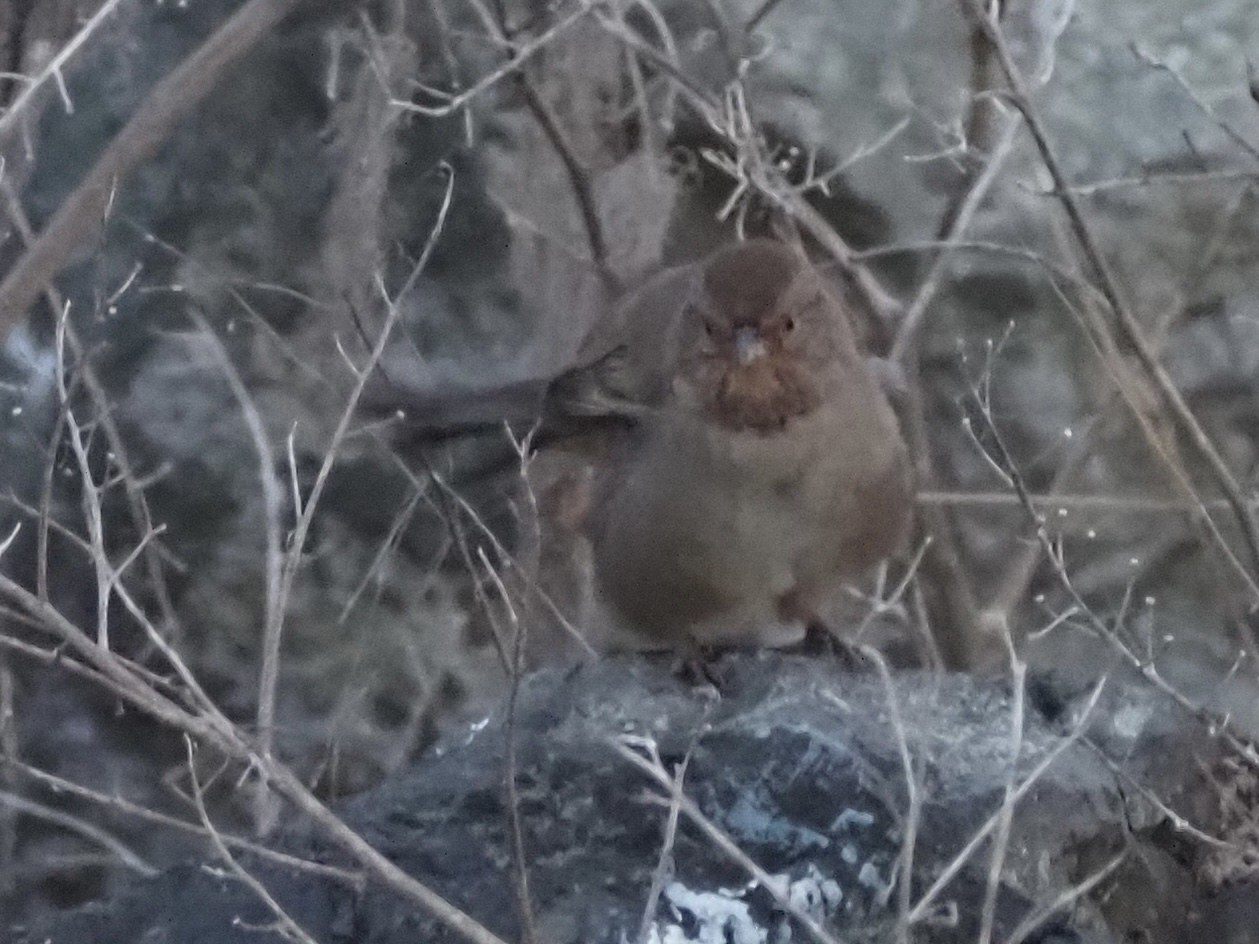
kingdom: Animalia
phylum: Chordata
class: Aves
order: Passeriformes
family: Passerellidae
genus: Melozone
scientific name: Melozone crissalis
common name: California towhee
